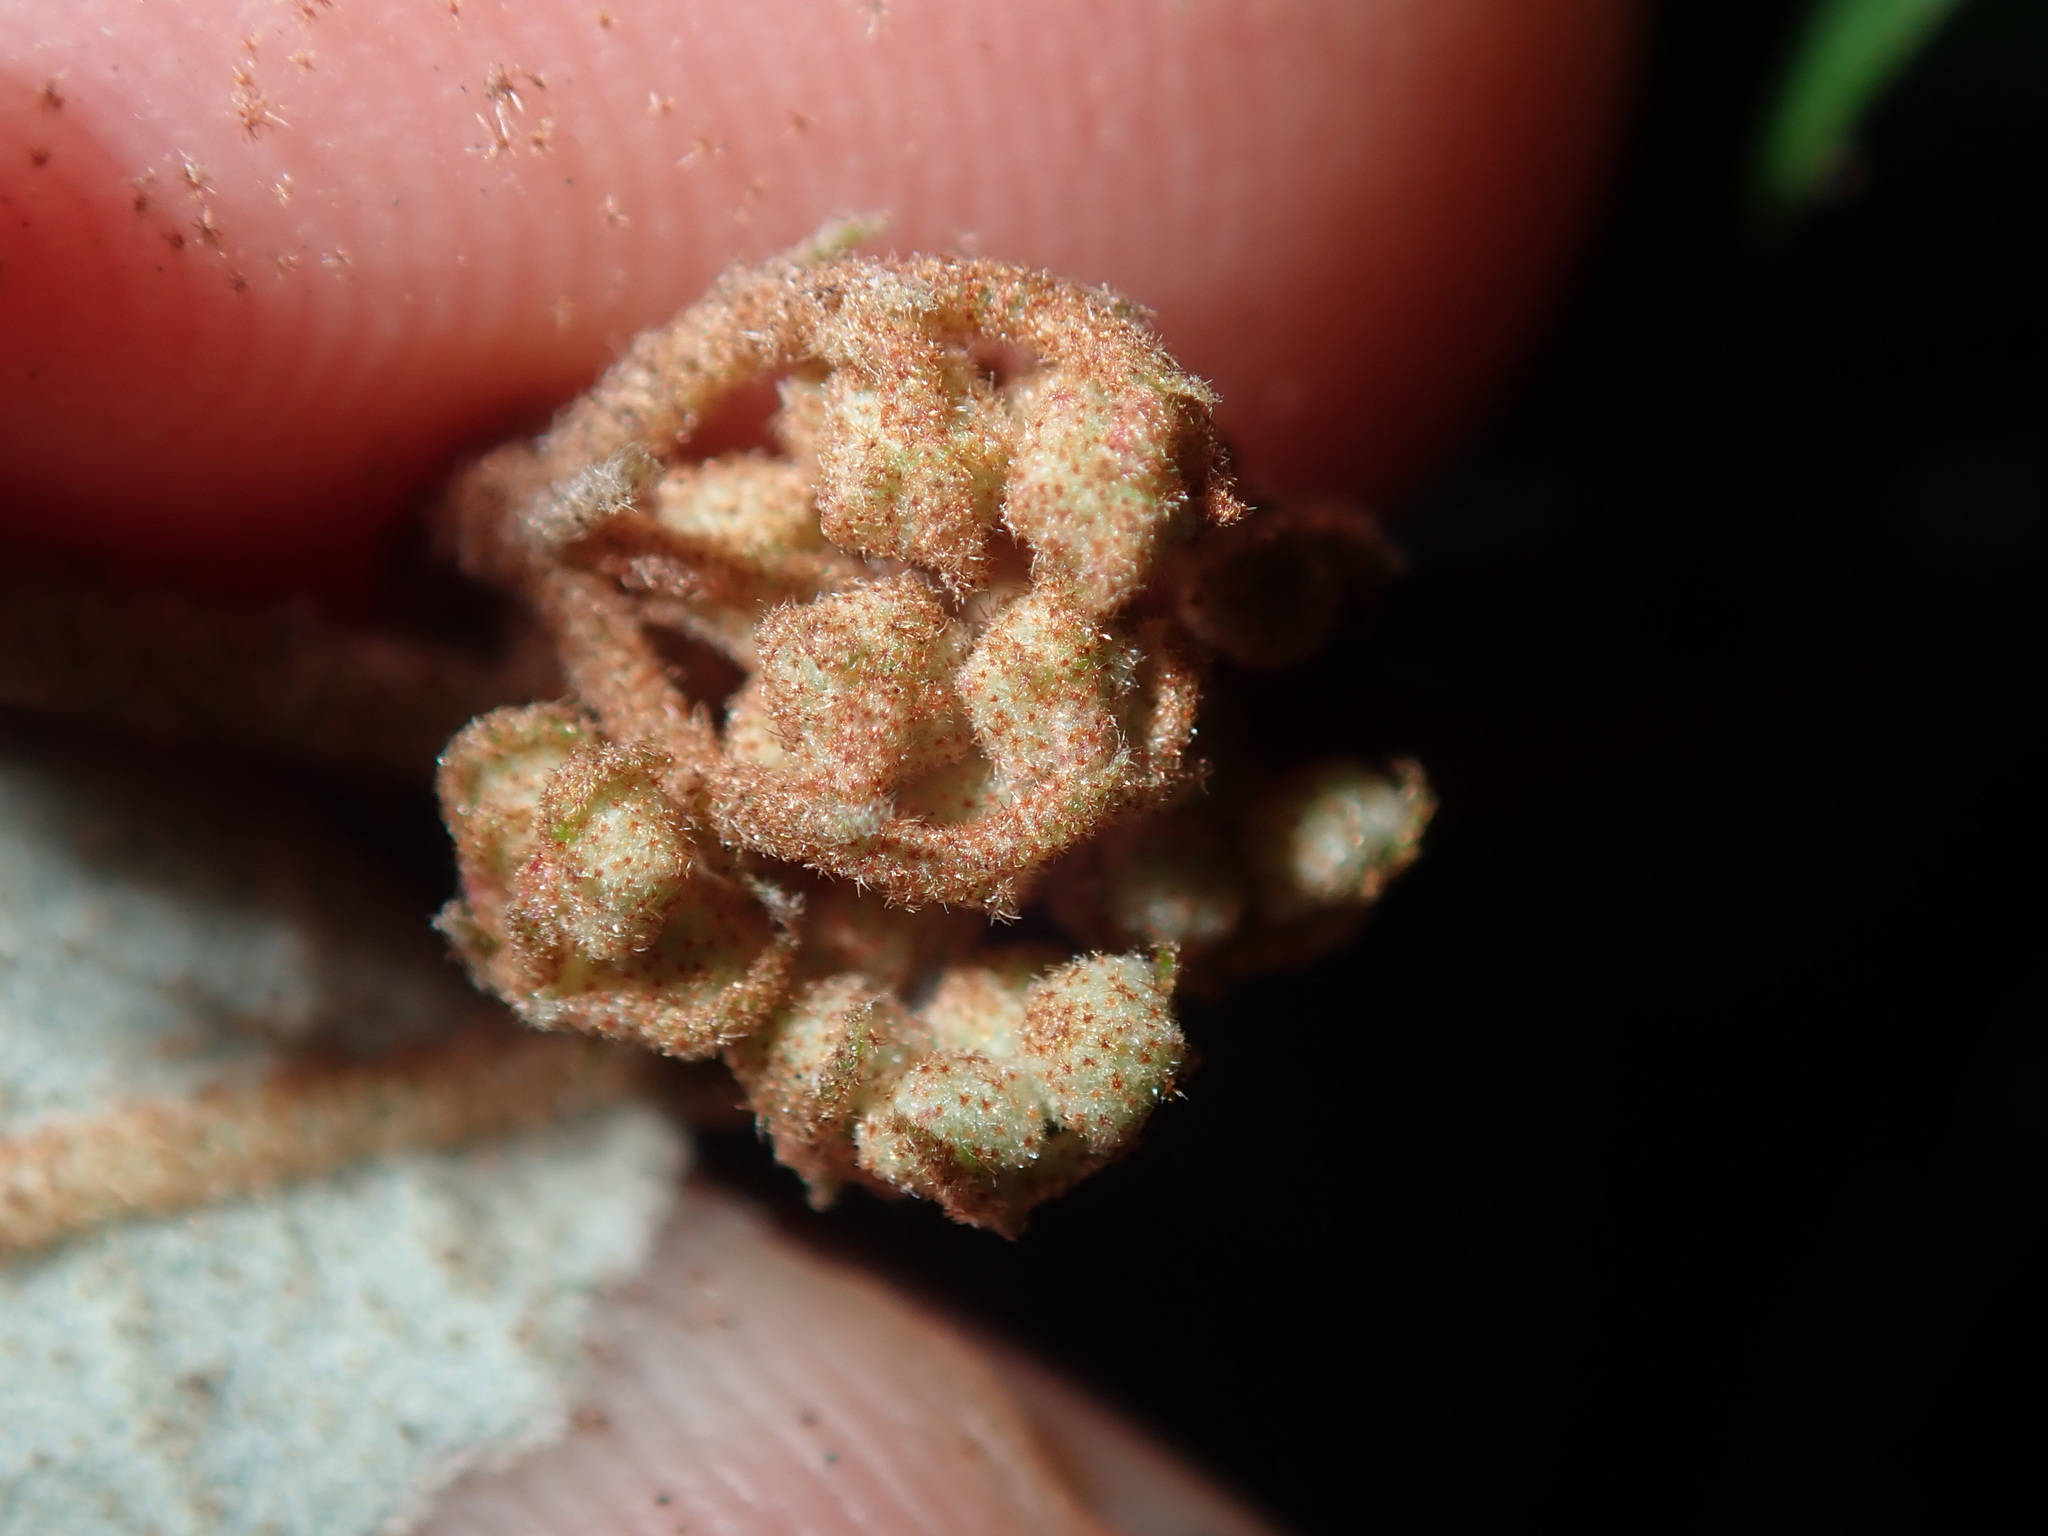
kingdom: Plantae
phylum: Tracheophyta
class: Magnoliopsida
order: Malvales
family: Malvaceae
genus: Lasiopetalum
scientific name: Lasiopetalum parviflorum
